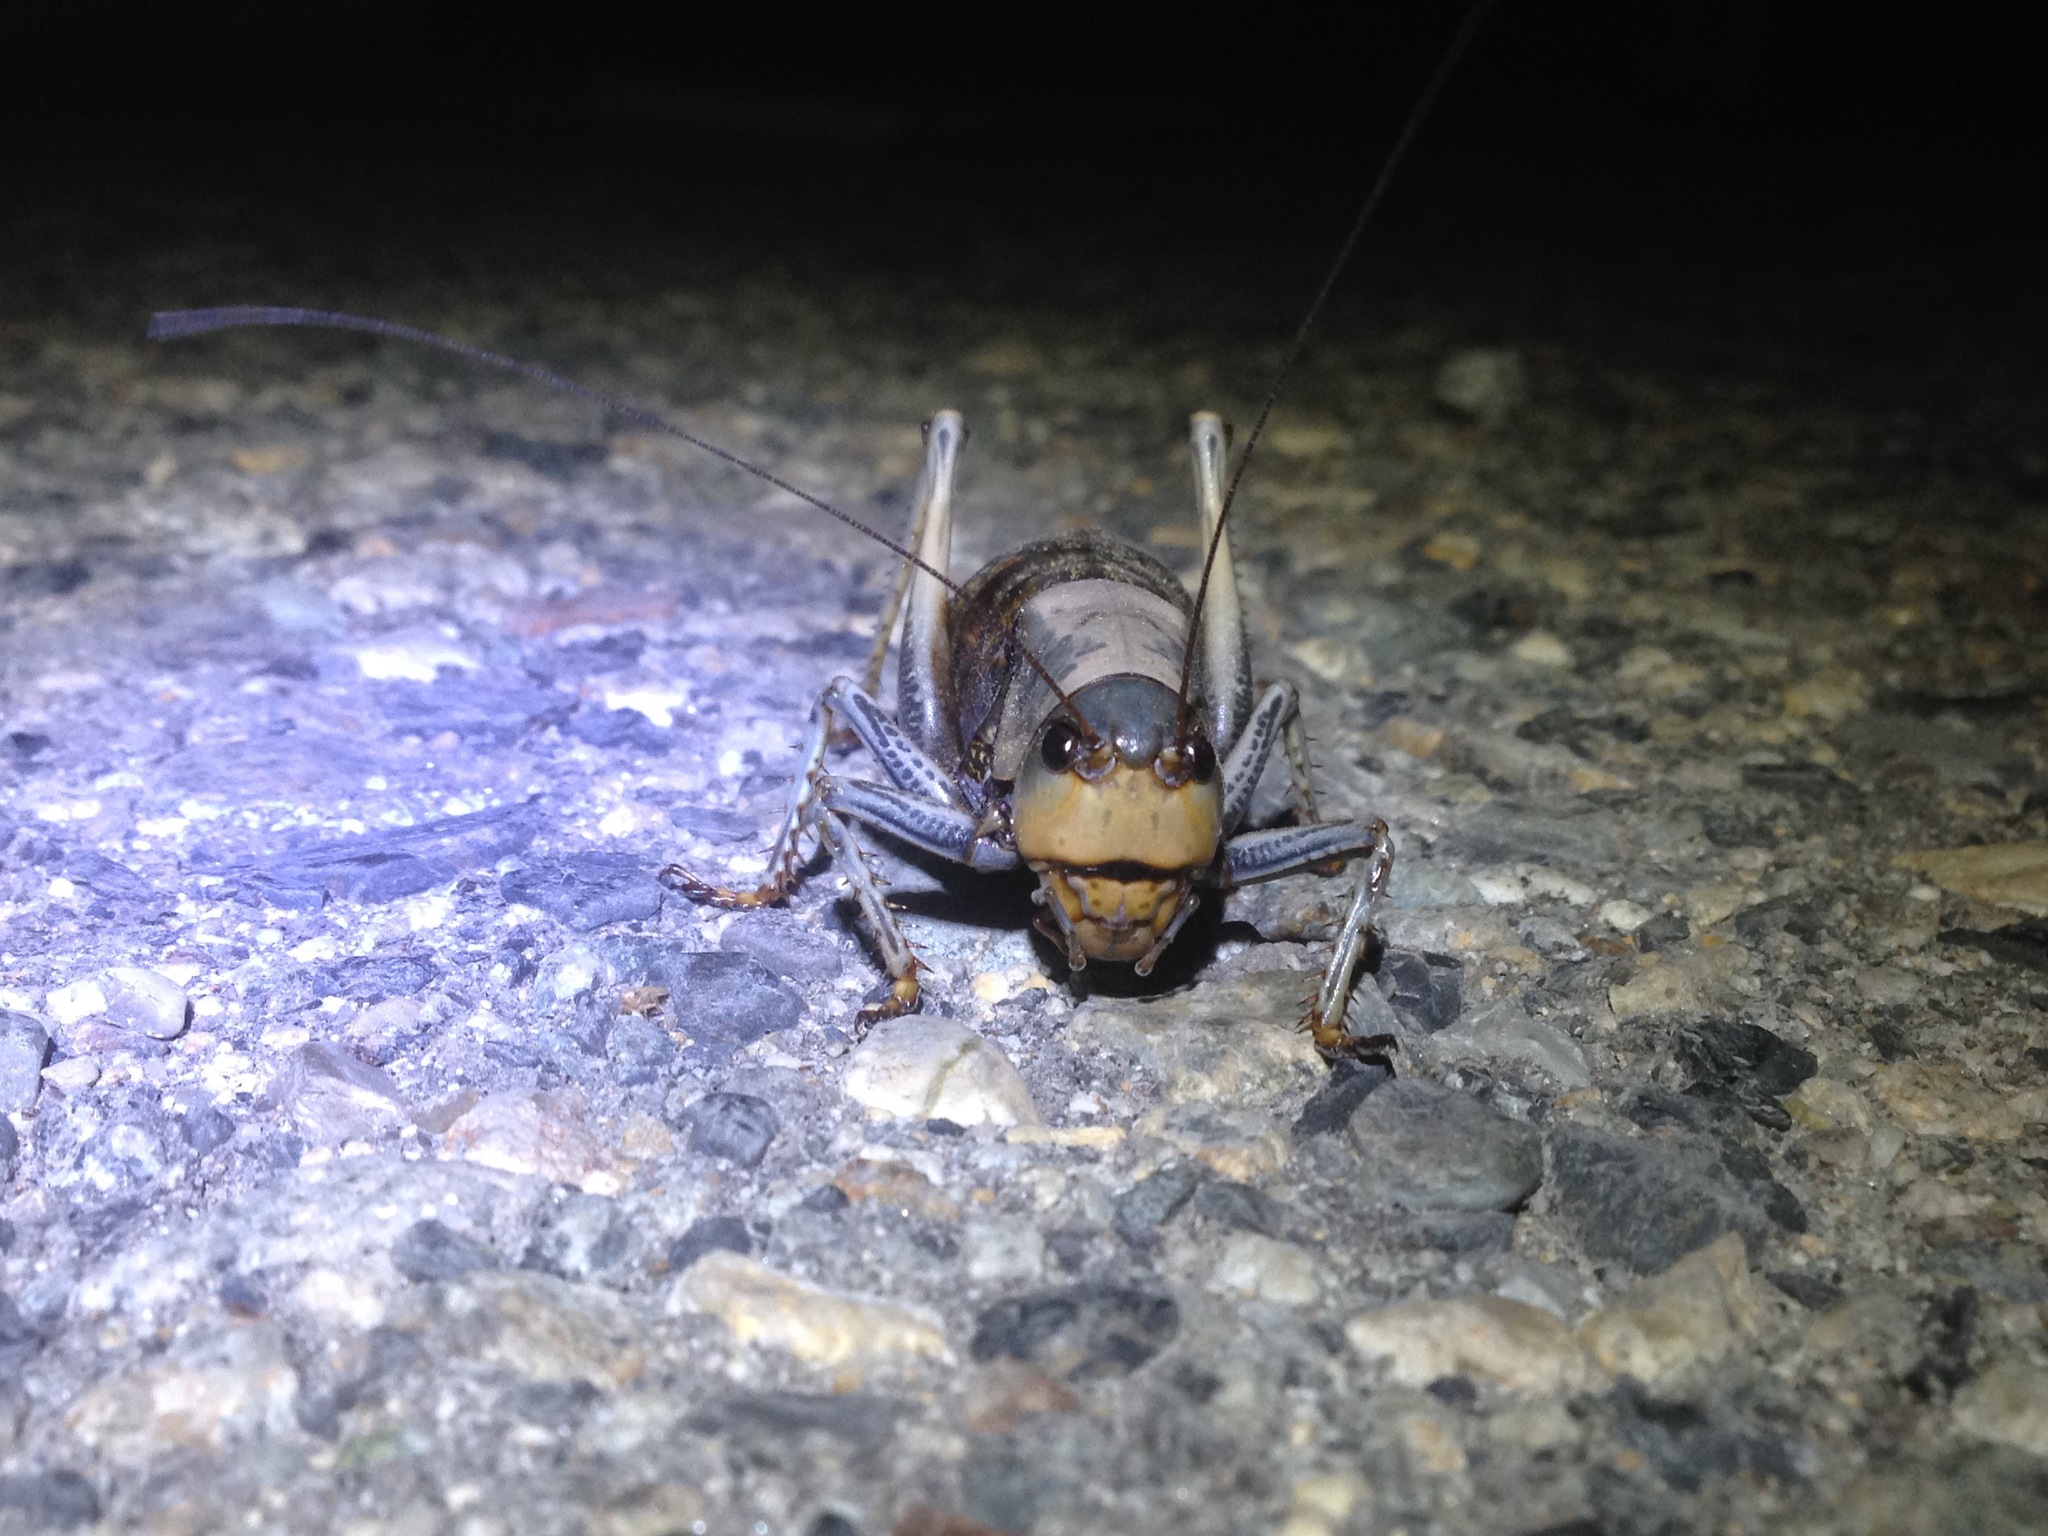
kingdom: Animalia
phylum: Arthropoda
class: Insecta
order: Orthoptera
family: Tettigoniidae
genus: Anabrus
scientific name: Anabrus simplex
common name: Mormon cricket
